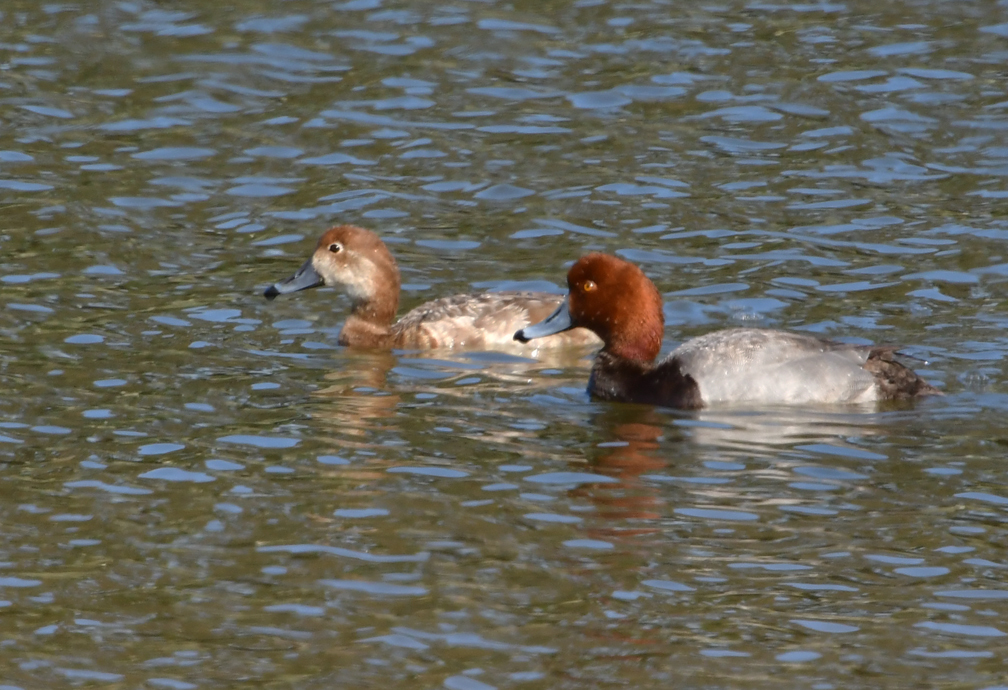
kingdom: Animalia
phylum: Chordata
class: Aves
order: Anseriformes
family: Anatidae
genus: Aythya
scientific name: Aythya americana
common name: Redhead
